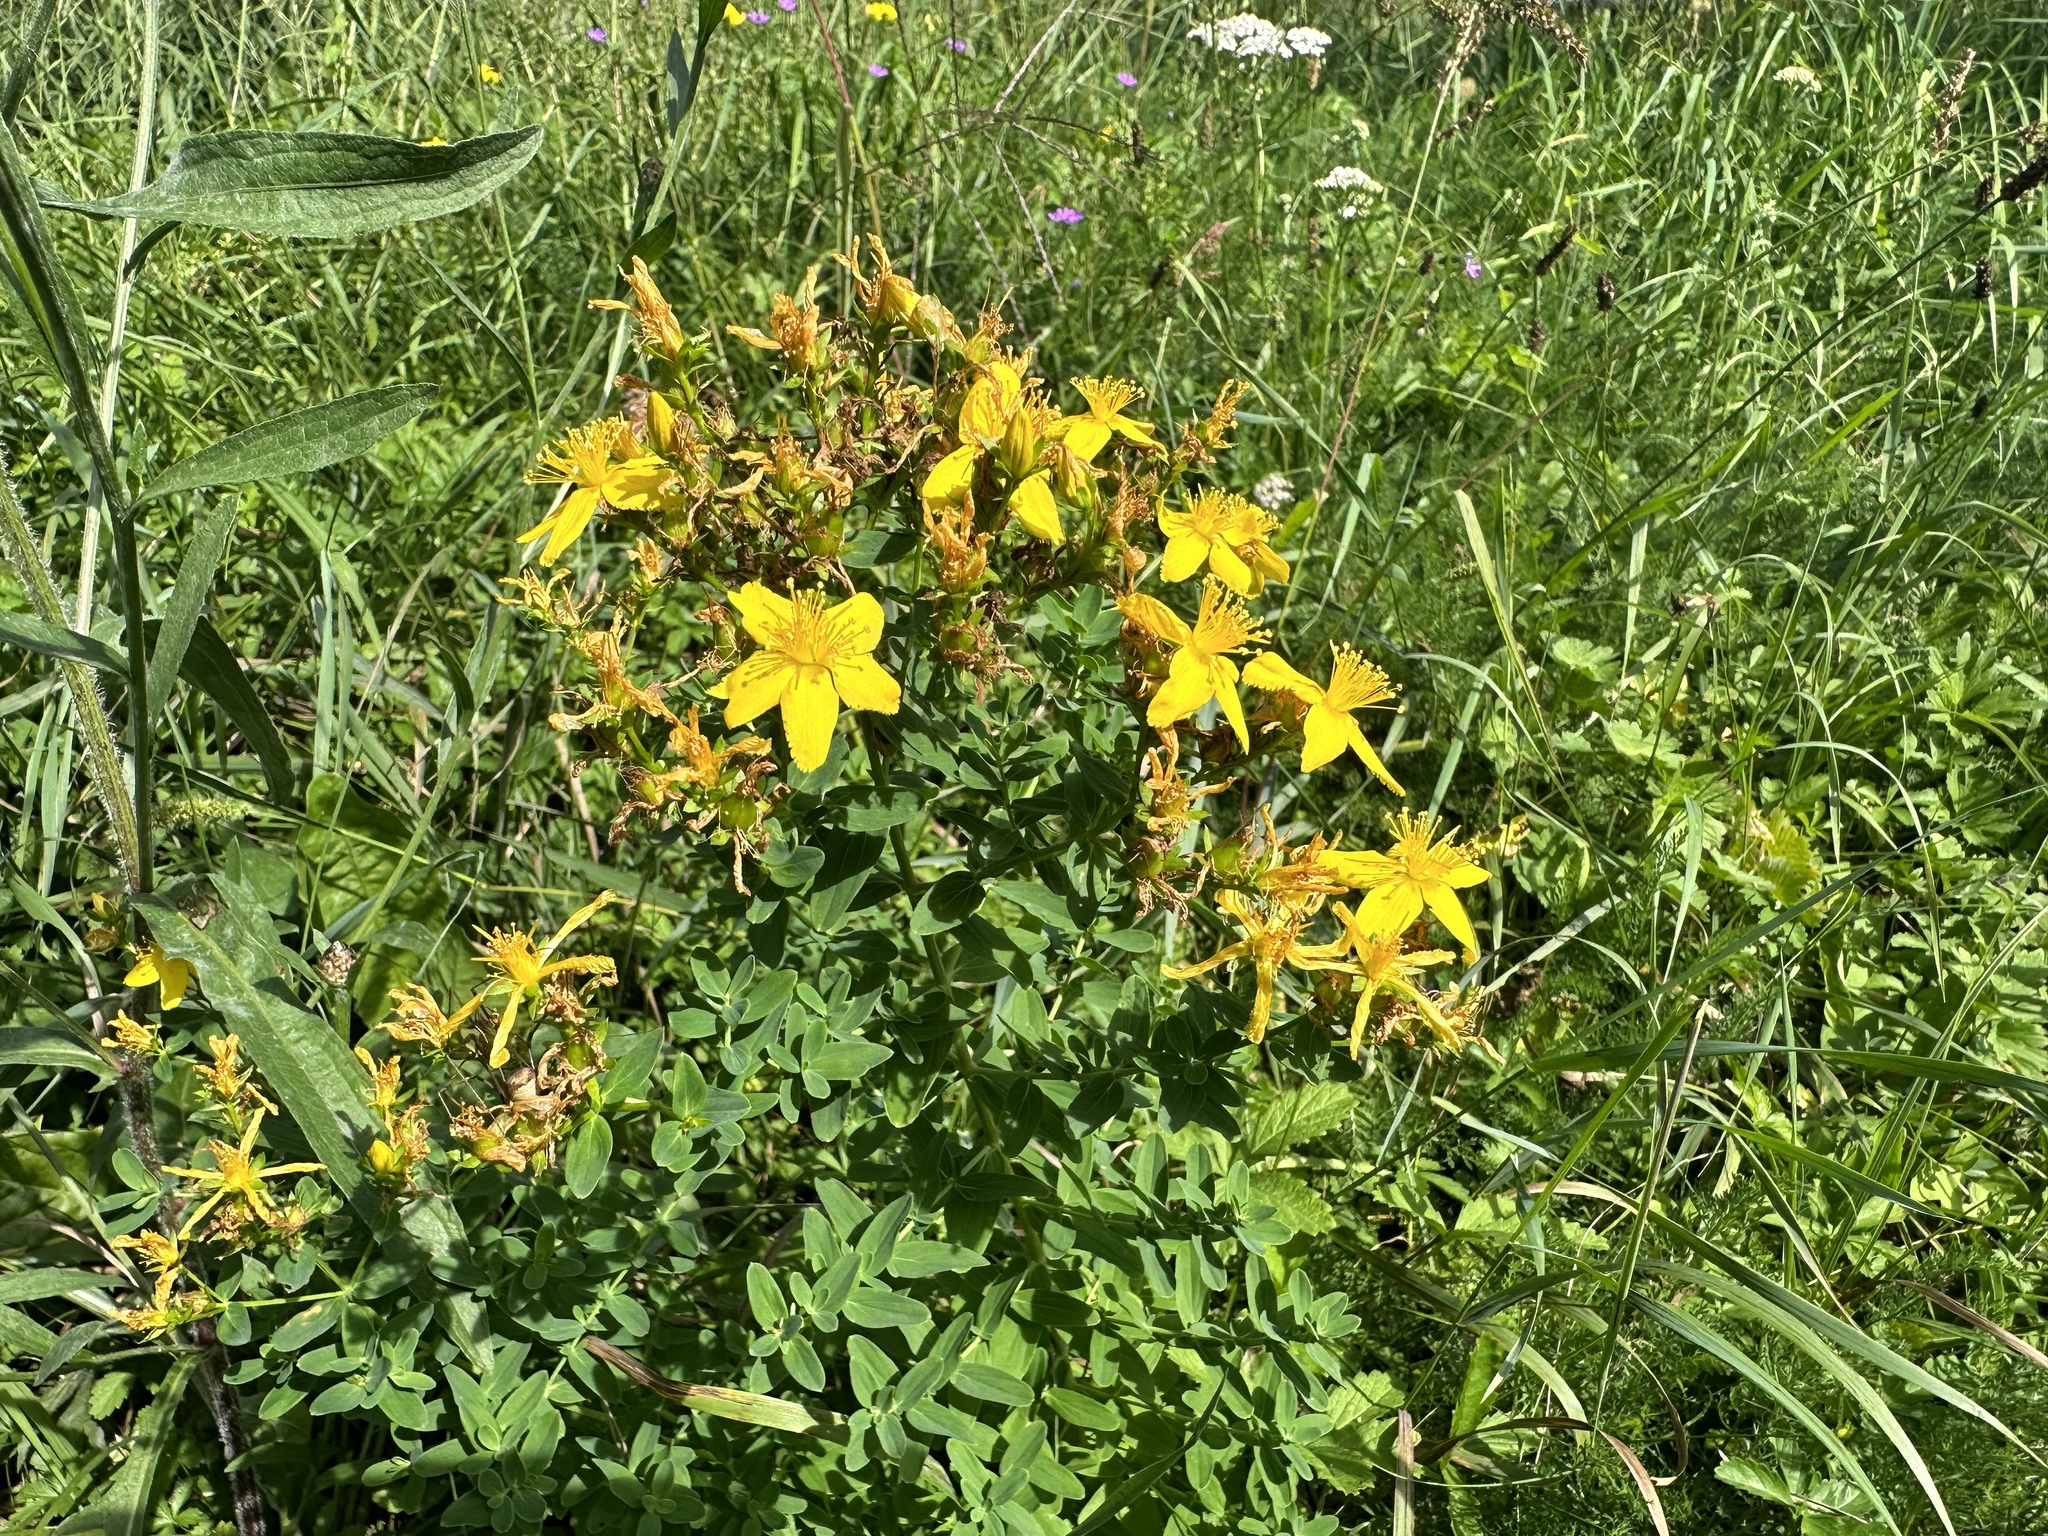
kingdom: Plantae
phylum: Tracheophyta
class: Magnoliopsida
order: Malpighiales
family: Hypericaceae
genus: Hypericum
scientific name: Hypericum perforatum
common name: Common st. johnswort
